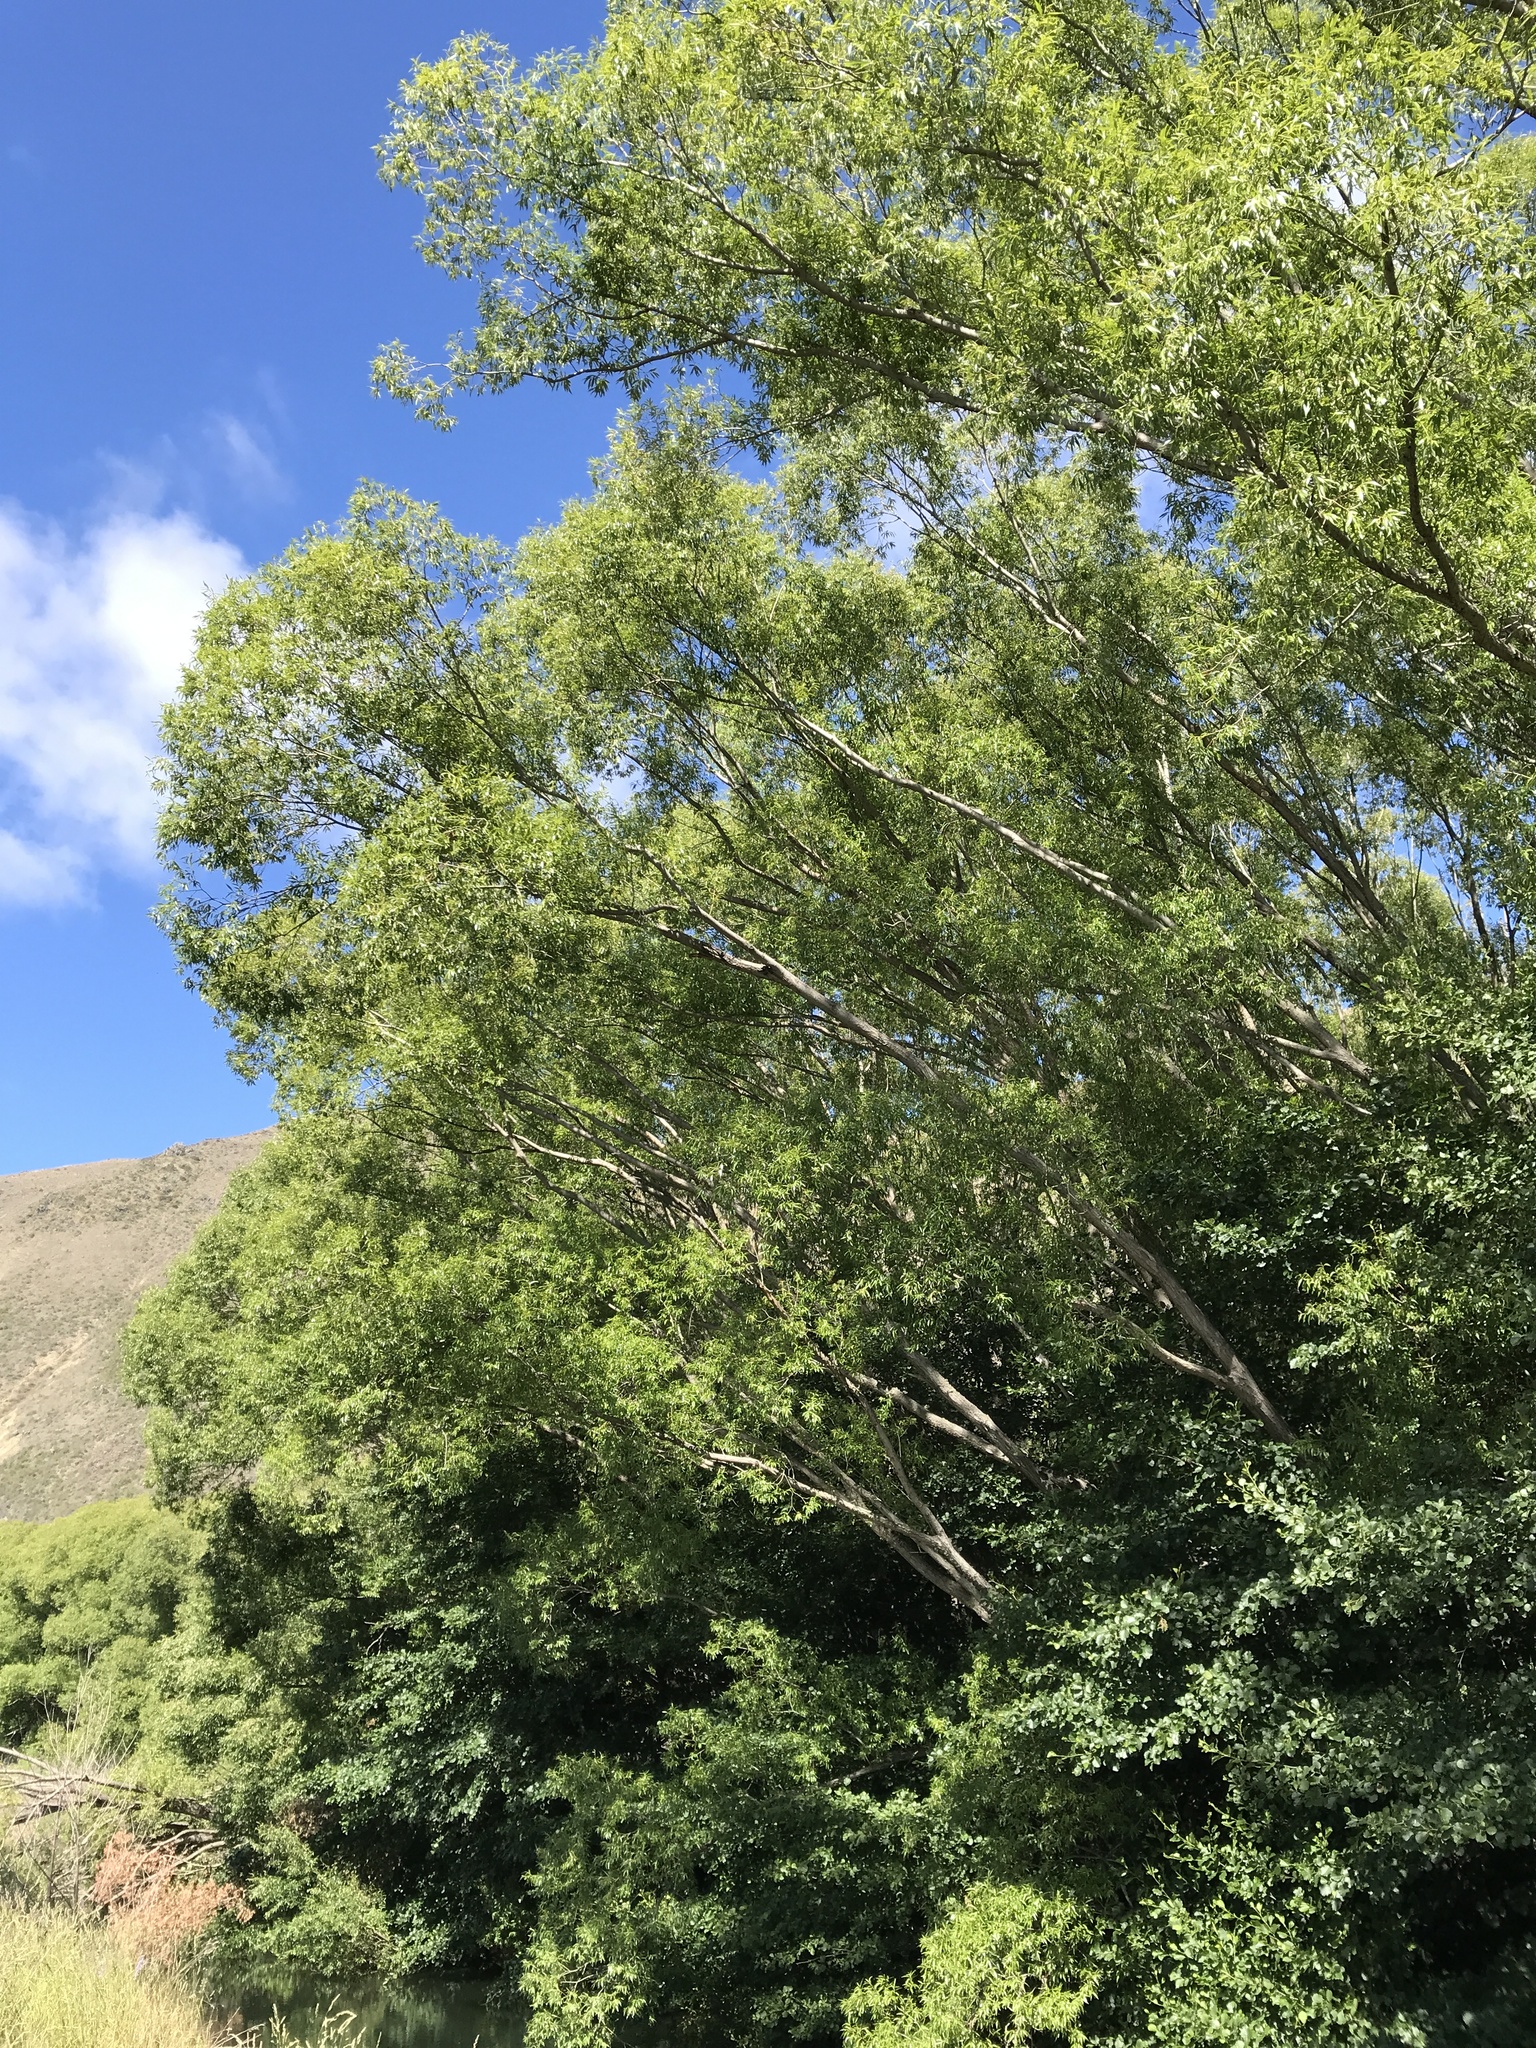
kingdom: Plantae
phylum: Tracheophyta
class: Magnoliopsida
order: Malpighiales
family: Salicaceae
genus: Salix
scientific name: Salix fragilis
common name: Crack willow
